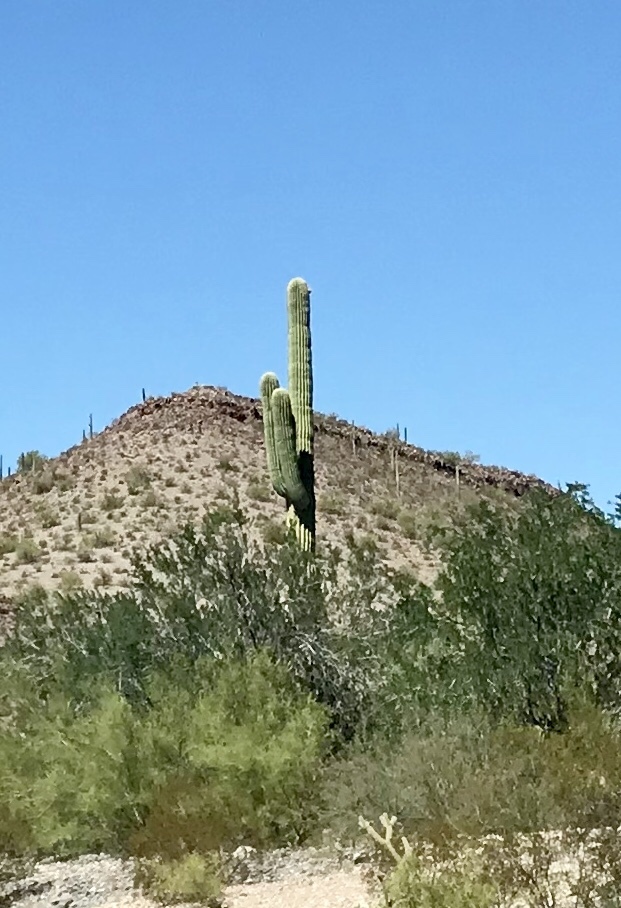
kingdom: Plantae
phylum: Tracheophyta
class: Magnoliopsida
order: Caryophyllales
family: Cactaceae
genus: Carnegiea
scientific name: Carnegiea gigantea
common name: Saguaro
